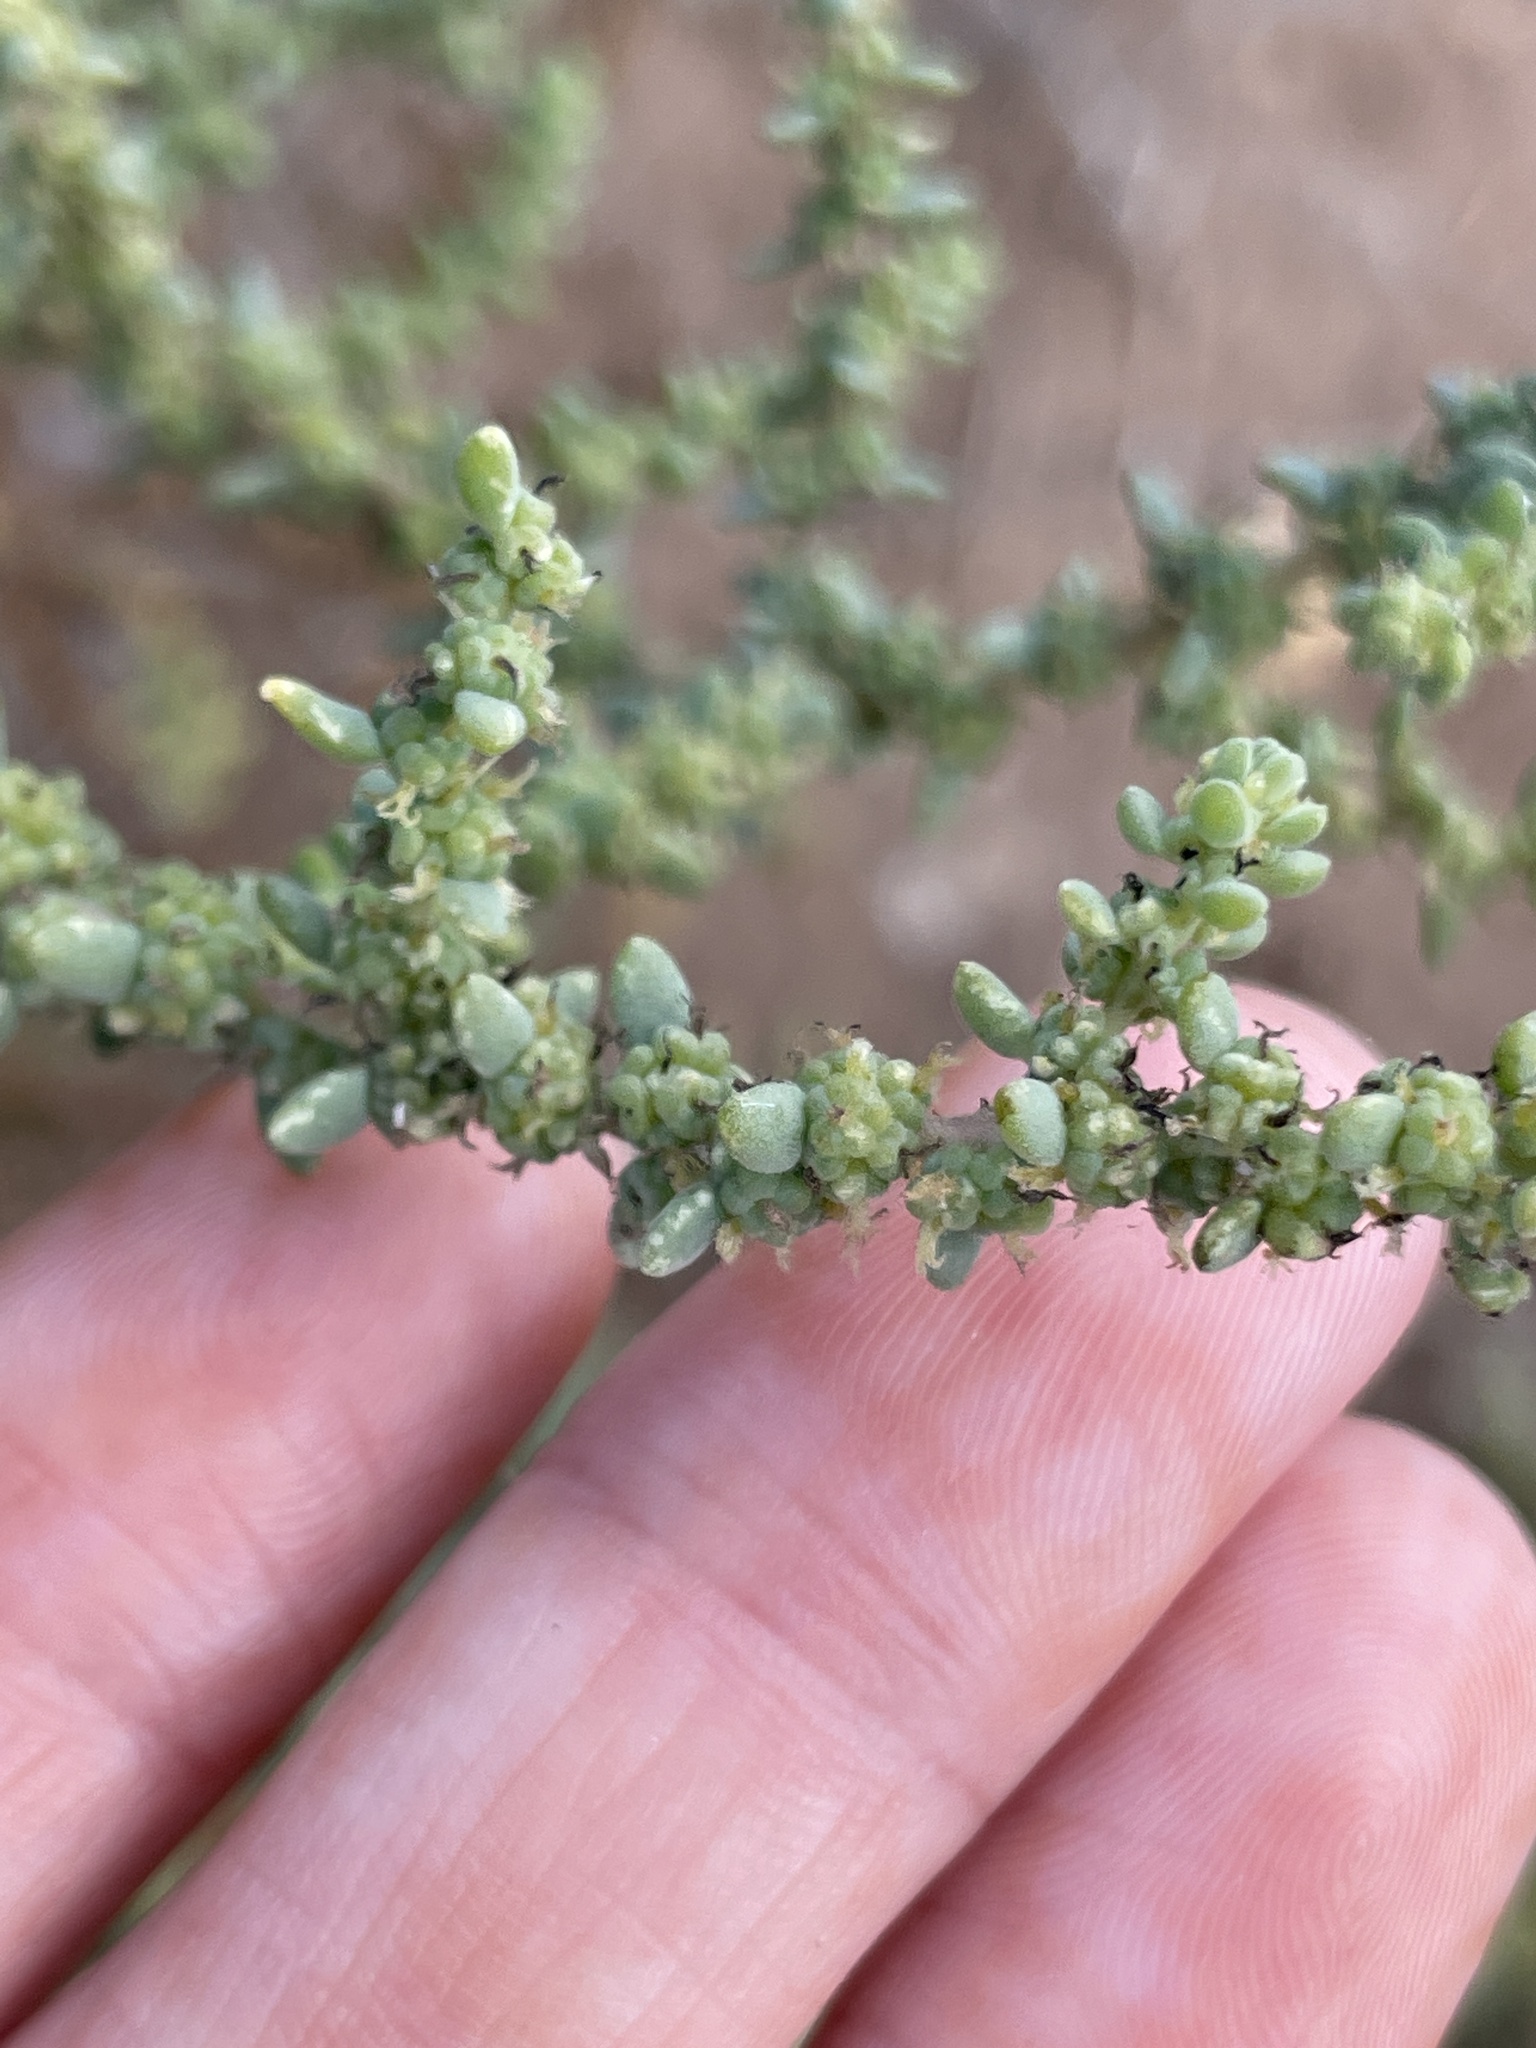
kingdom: Plantae
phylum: Tracheophyta
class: Magnoliopsida
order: Caryophyllales
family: Amaranthaceae
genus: Suaeda
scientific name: Suaeda nigra
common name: Bush seepweed
